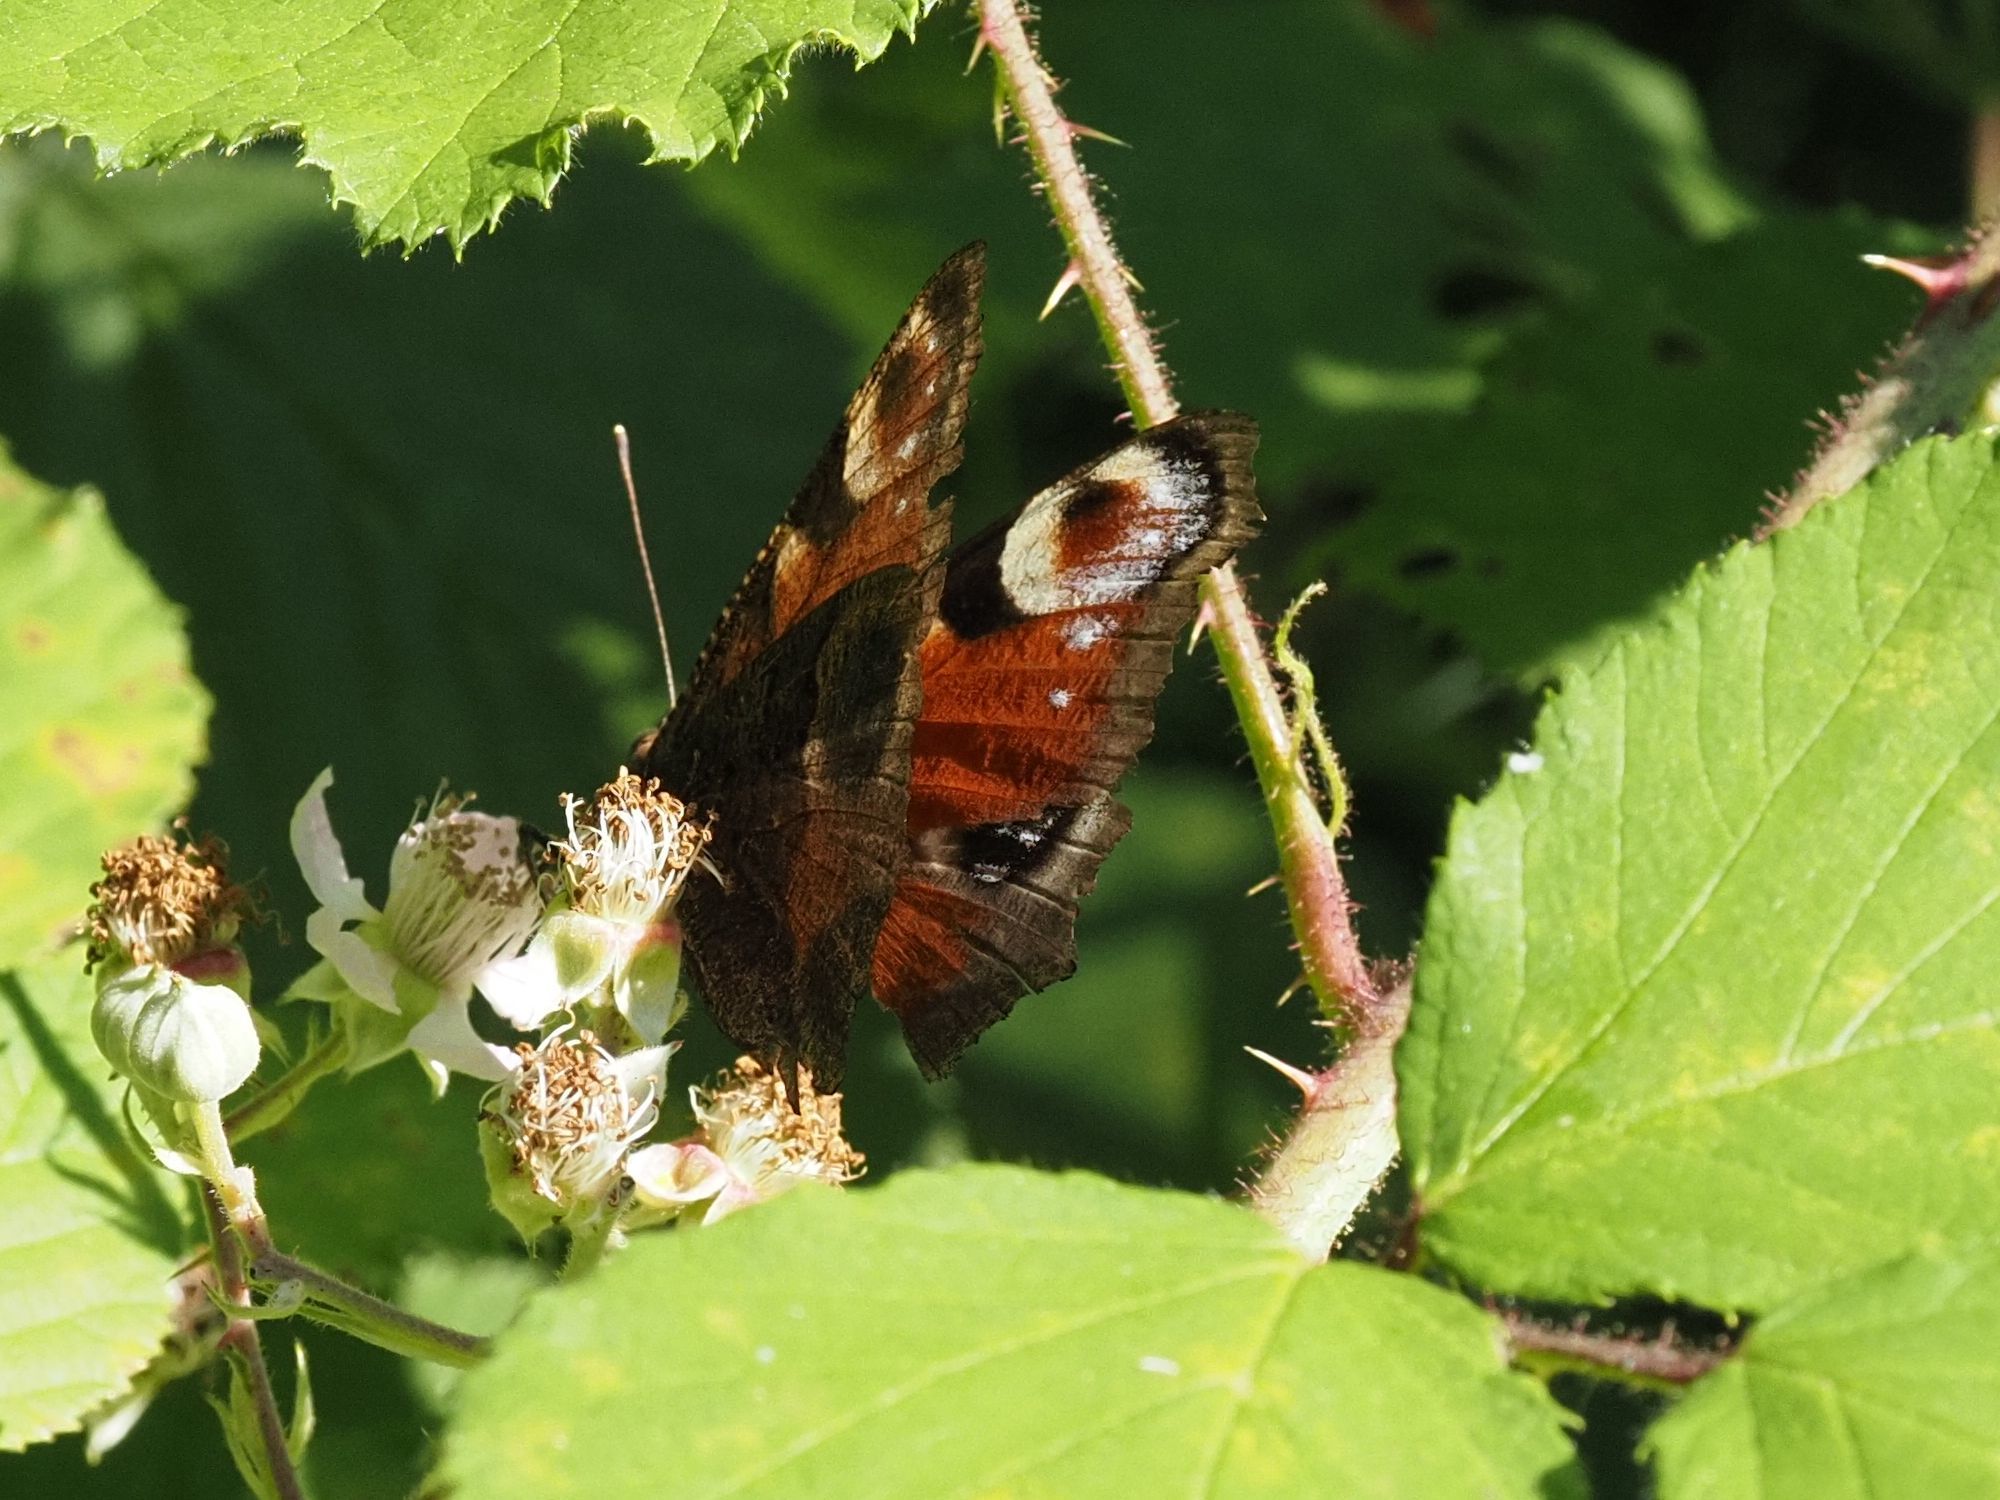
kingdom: Animalia
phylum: Arthropoda
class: Insecta
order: Lepidoptera
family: Nymphalidae
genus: Aglais
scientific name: Aglais io
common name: Peacock
